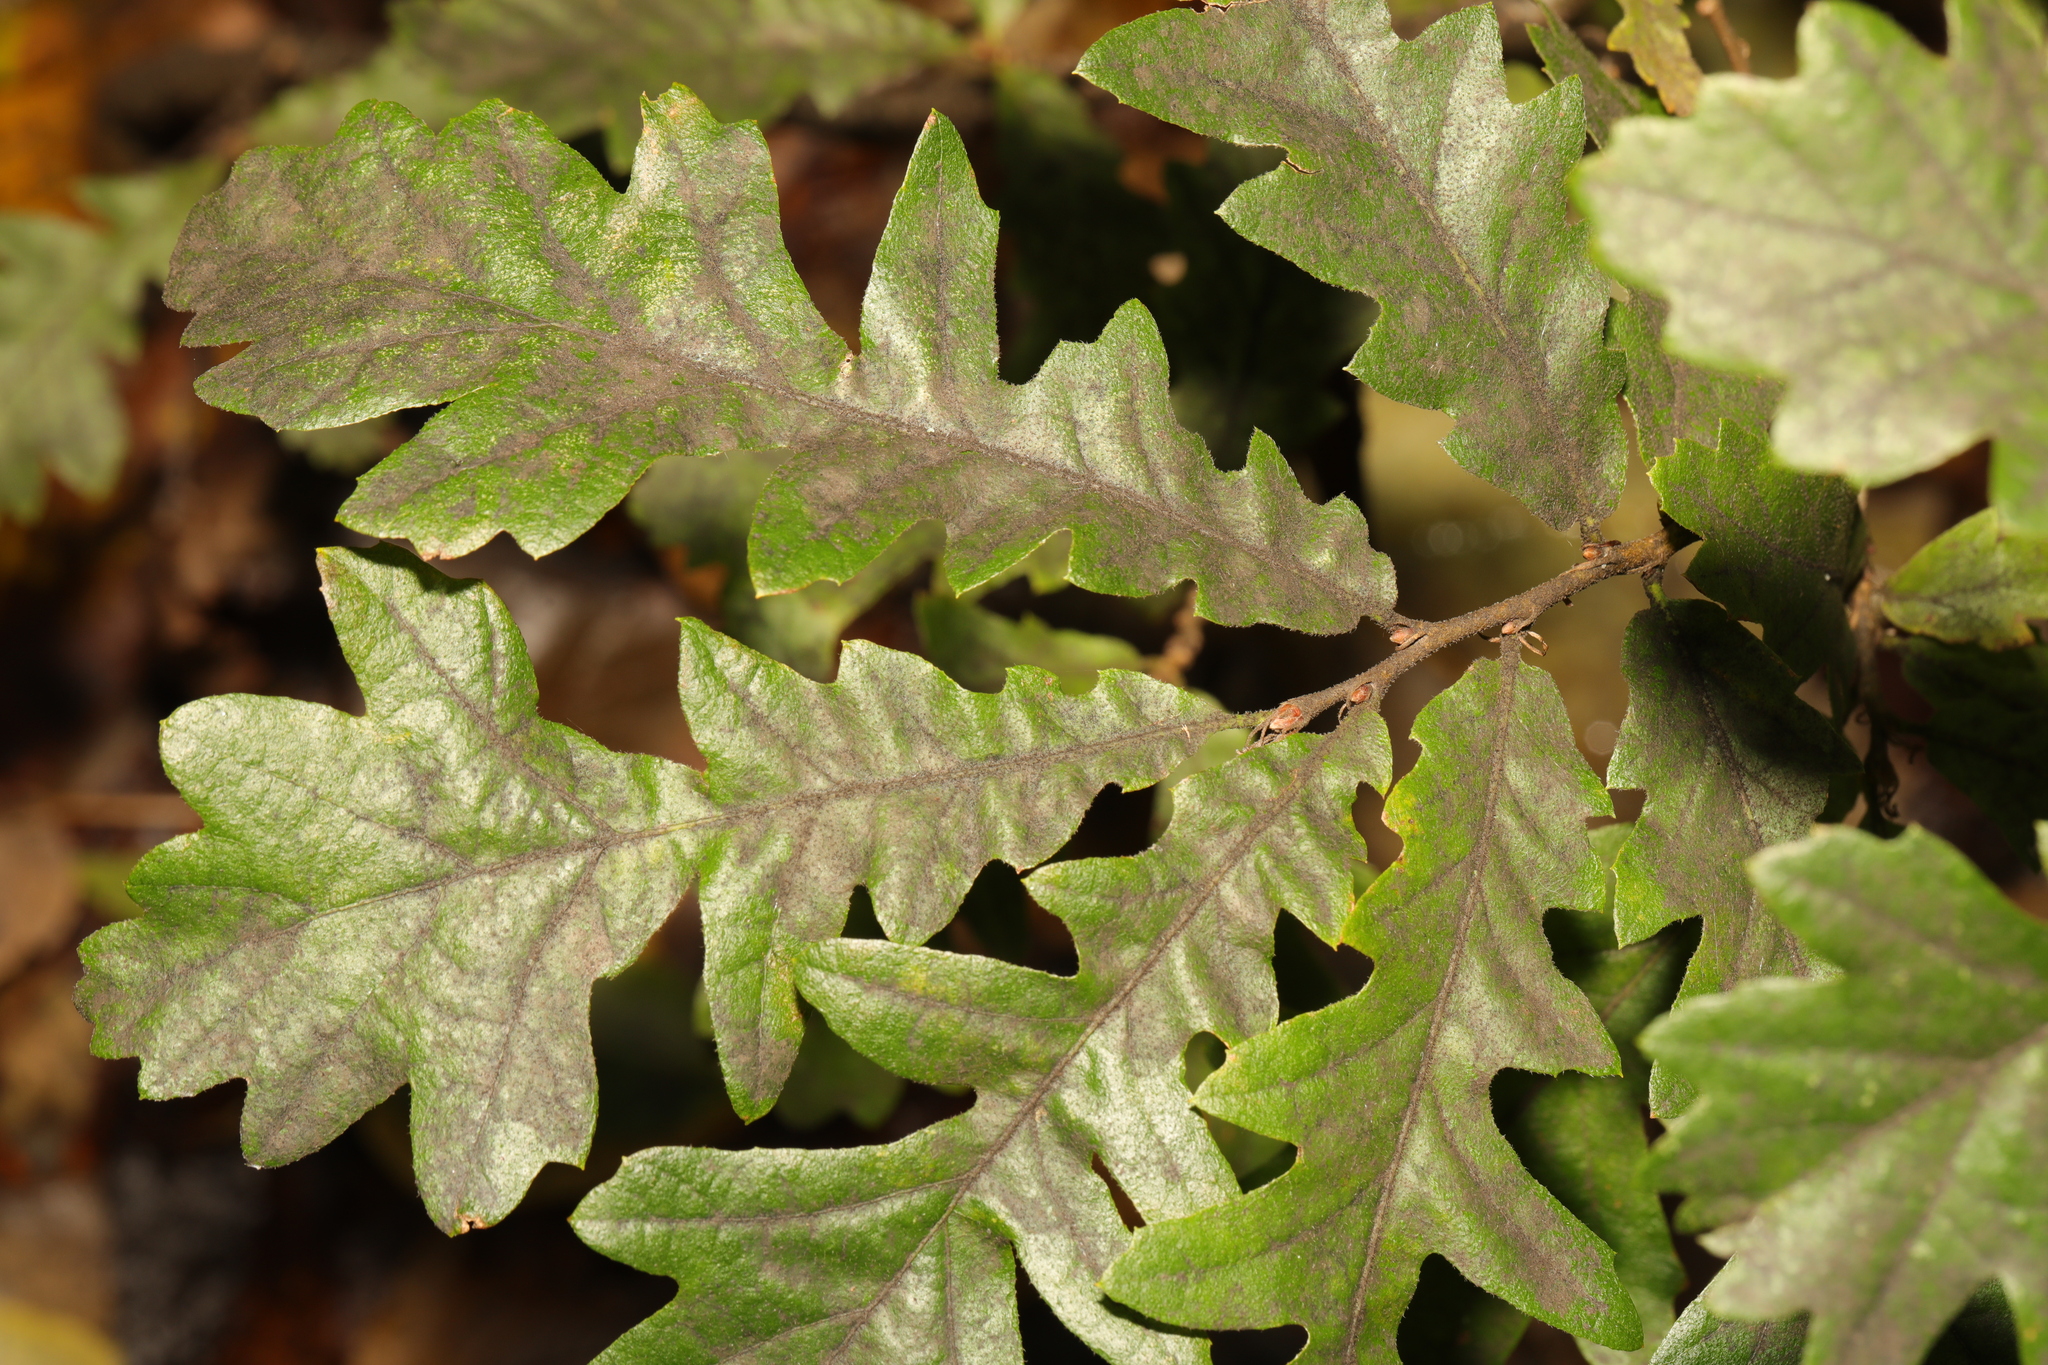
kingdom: Plantae
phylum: Tracheophyta
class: Magnoliopsida
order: Fagales
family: Fagaceae
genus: Quercus
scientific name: Quercus cerris
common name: Turkey oak
